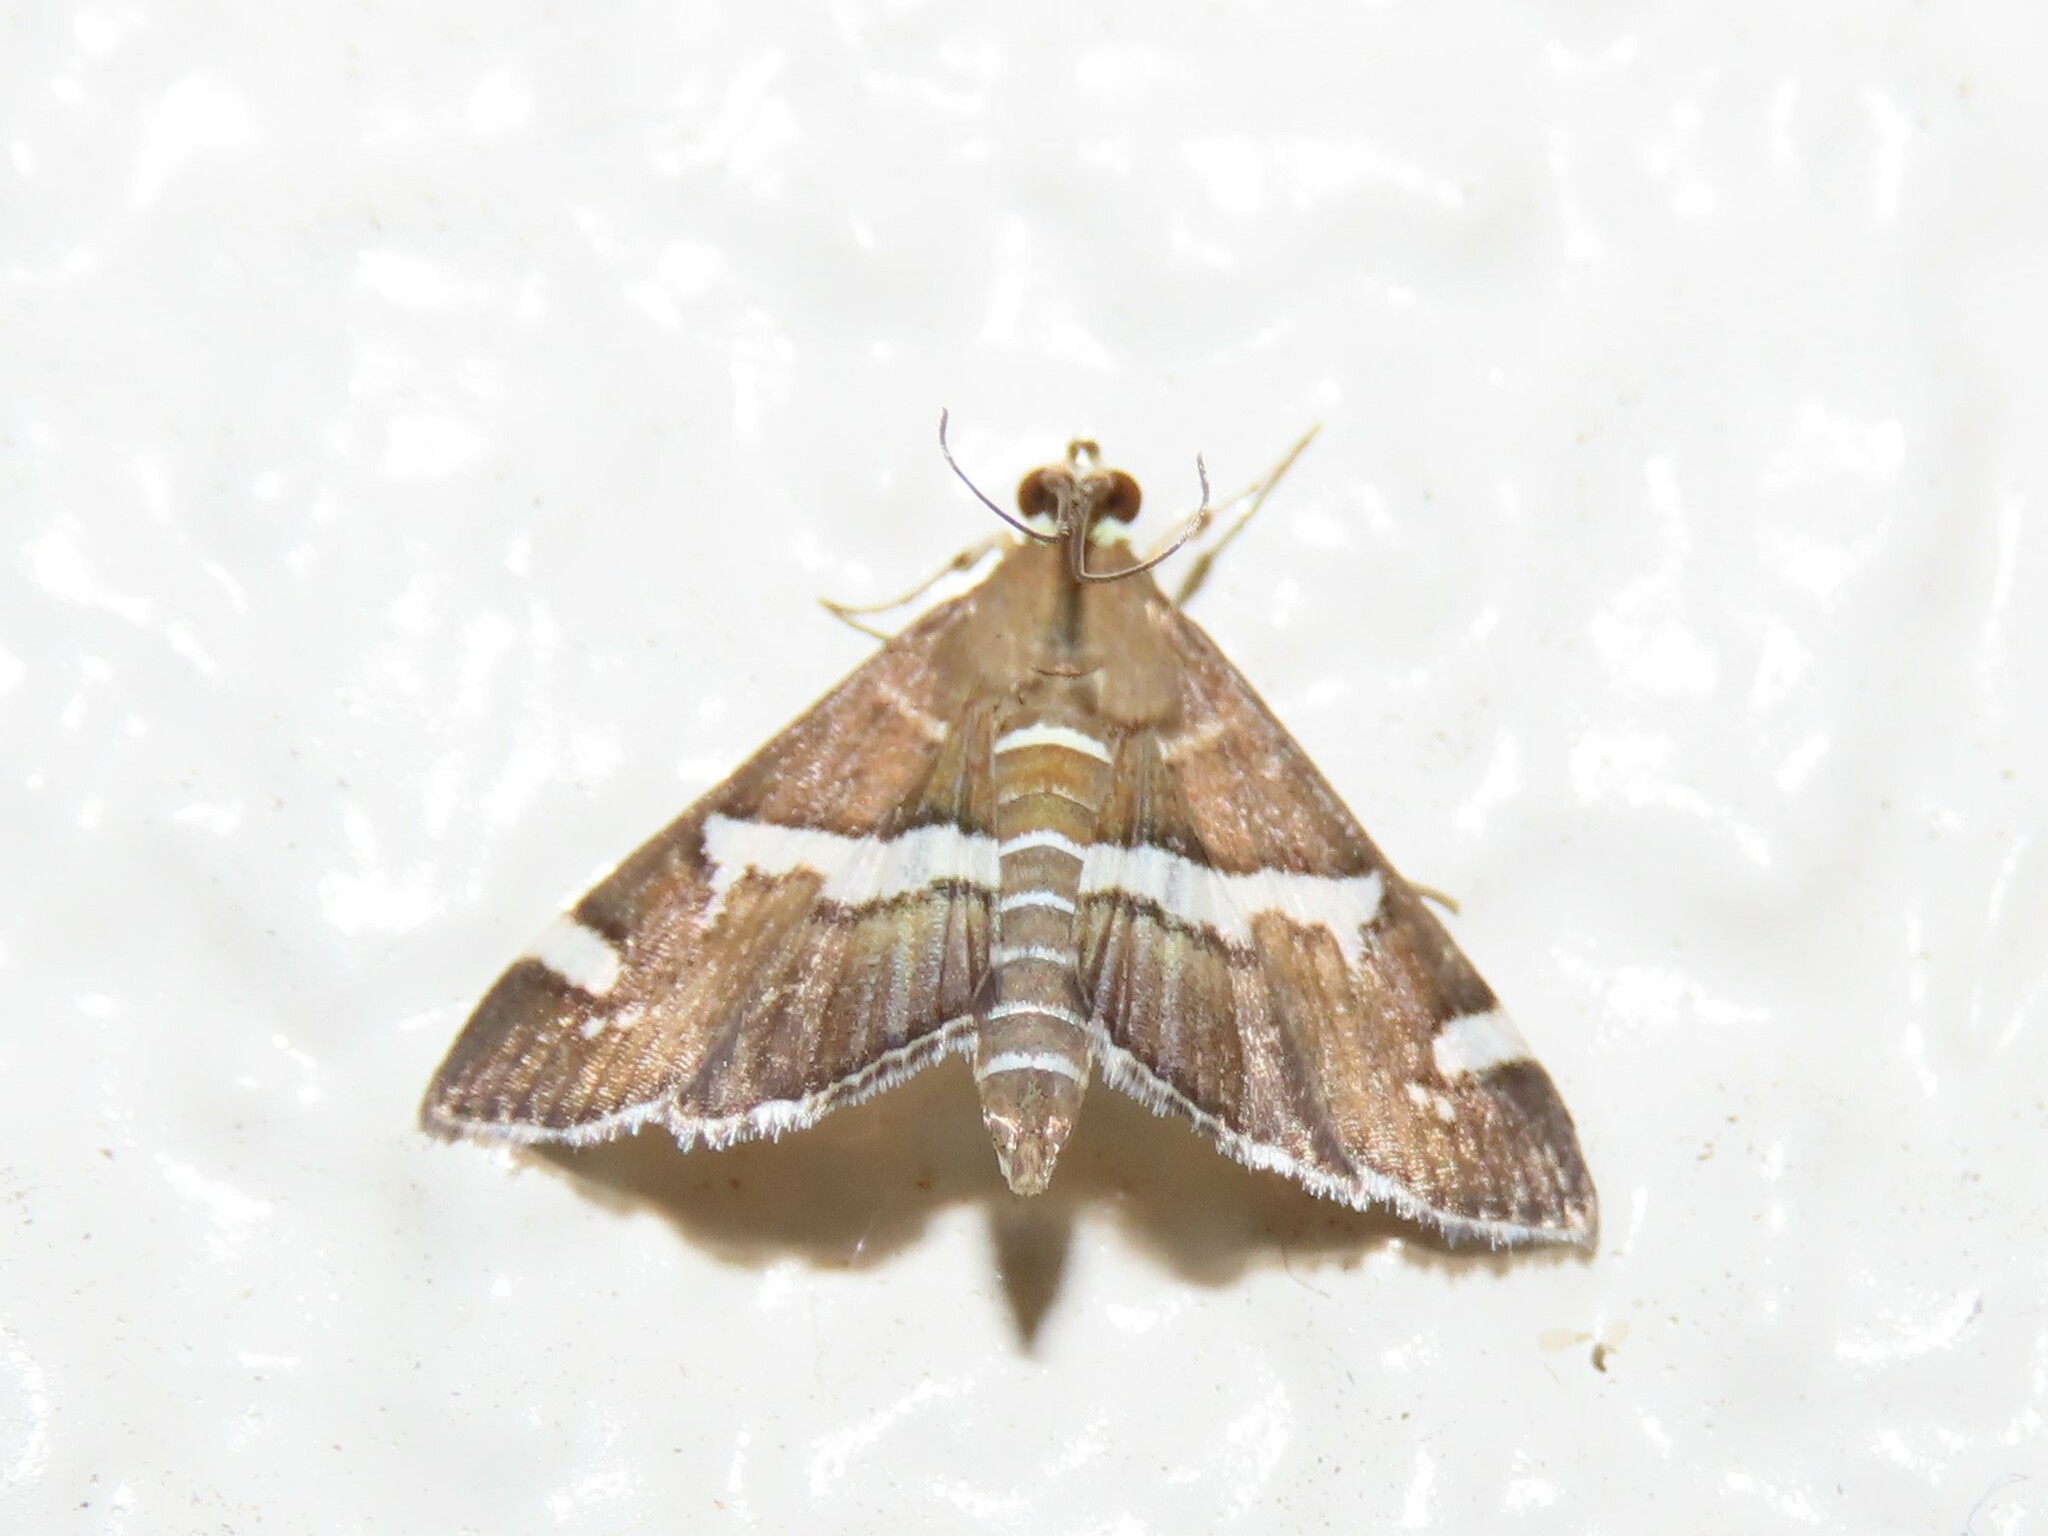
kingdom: Animalia
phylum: Arthropoda
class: Insecta
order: Lepidoptera
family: Crambidae
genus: Spoladea
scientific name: Spoladea recurvalis
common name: Beet webworm moth
